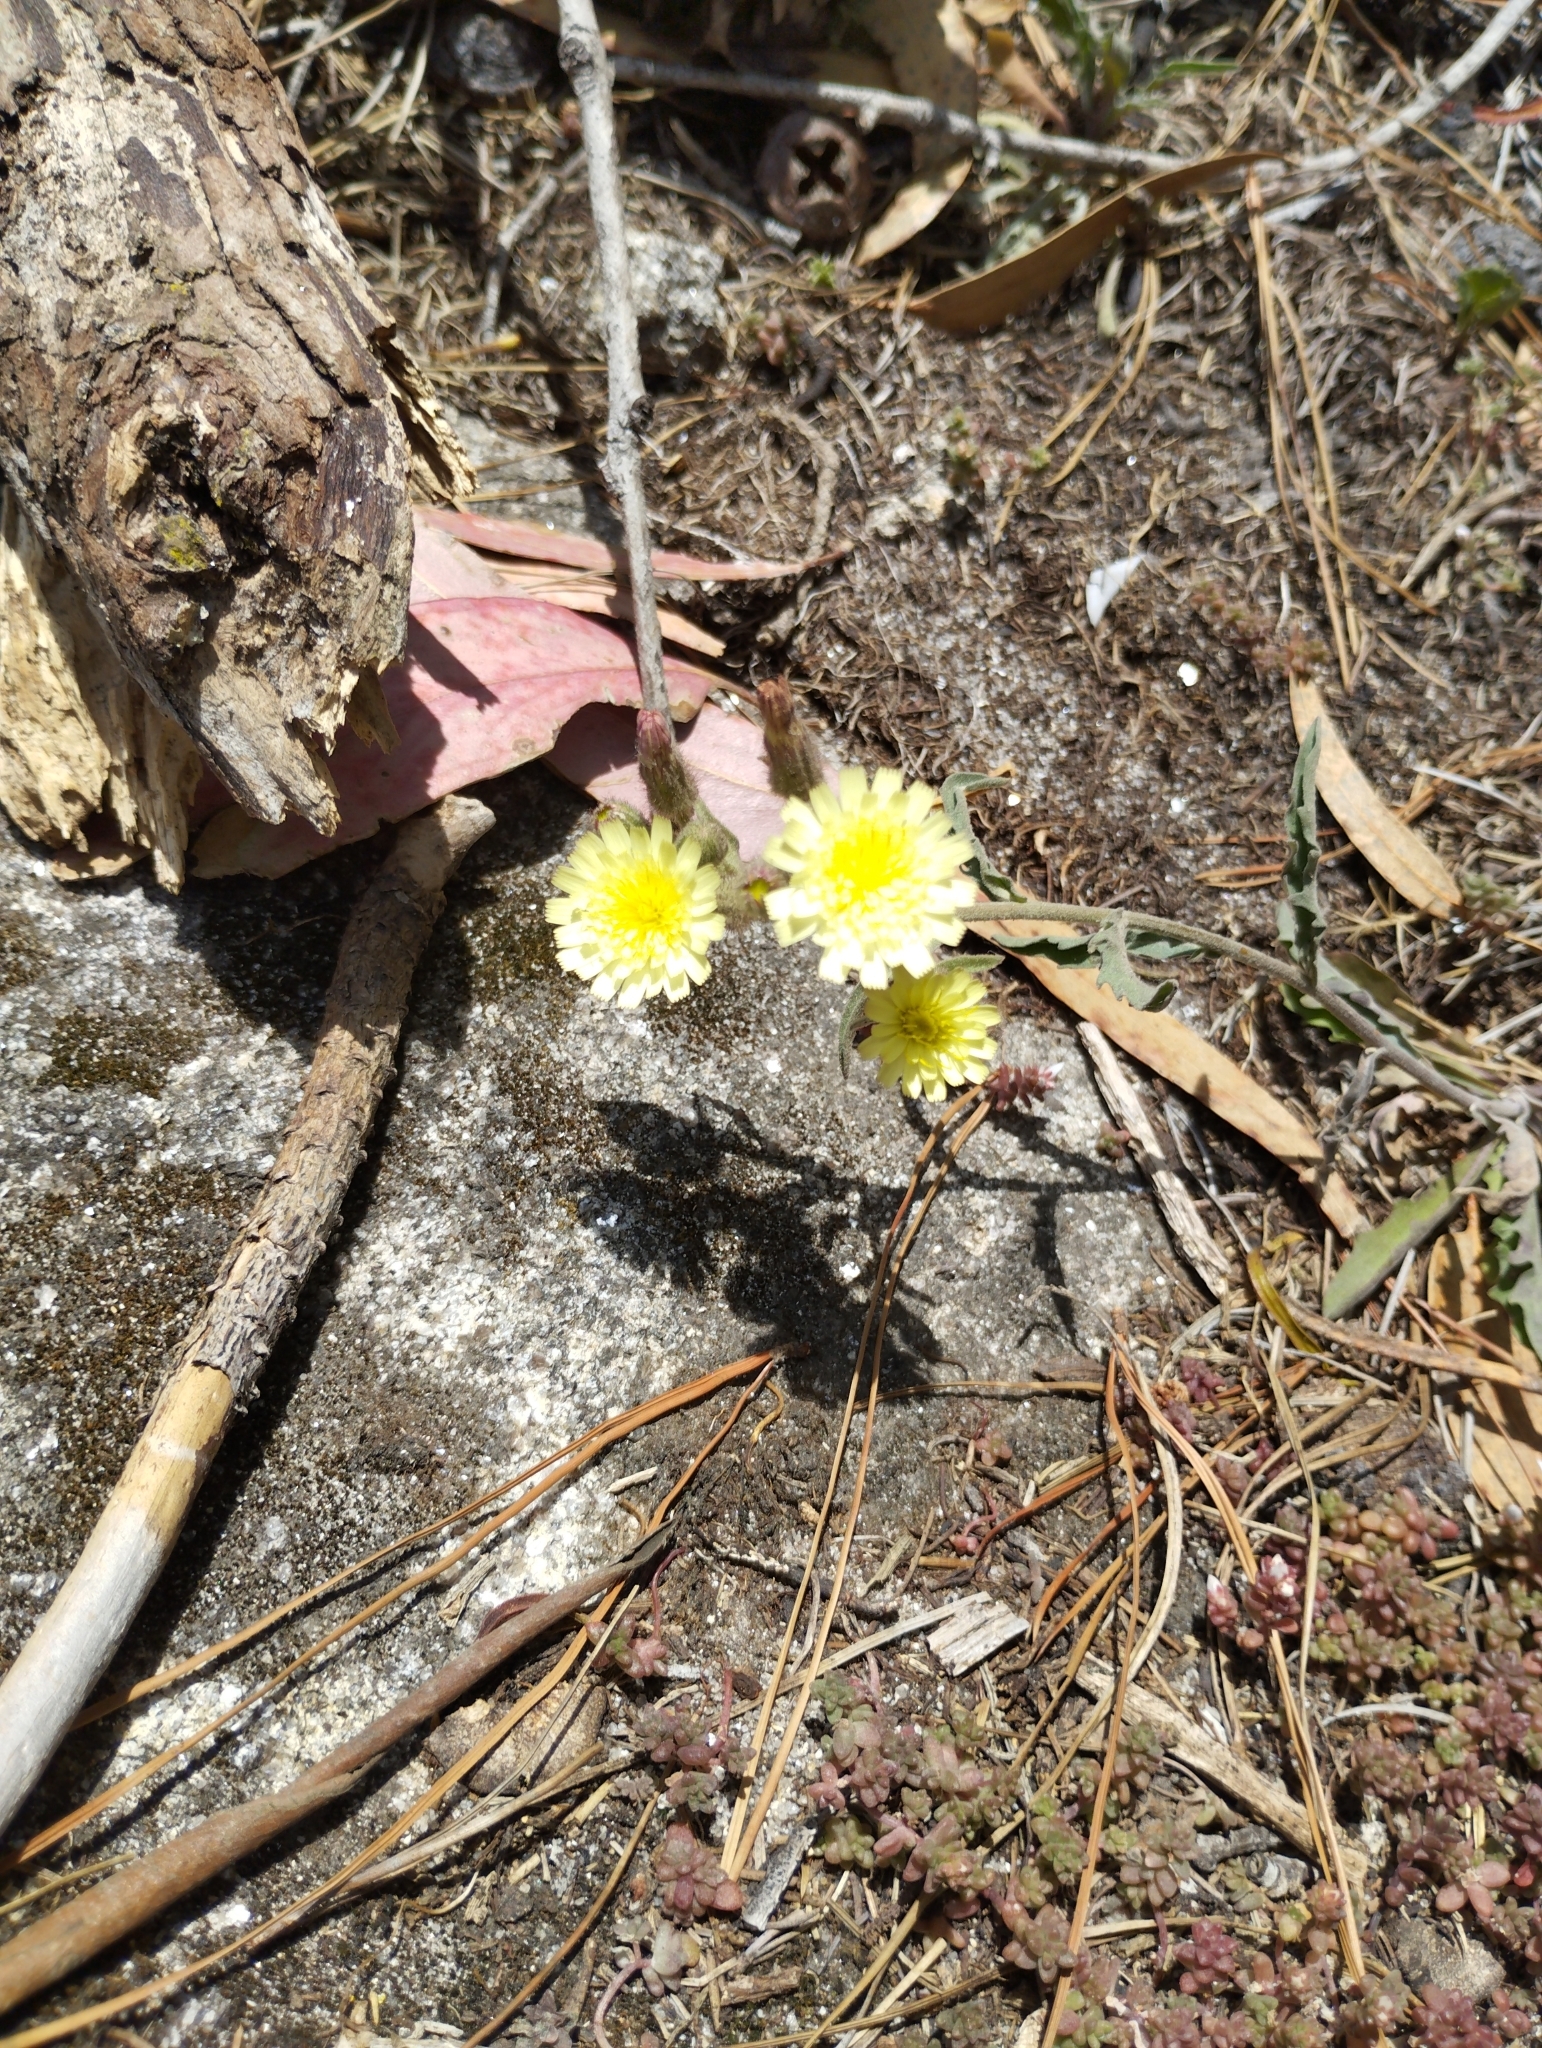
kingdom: Plantae
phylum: Tracheophyta
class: Magnoliopsida
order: Asterales
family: Asteraceae
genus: Andryala
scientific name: Andryala integrifolia
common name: Common andryala
